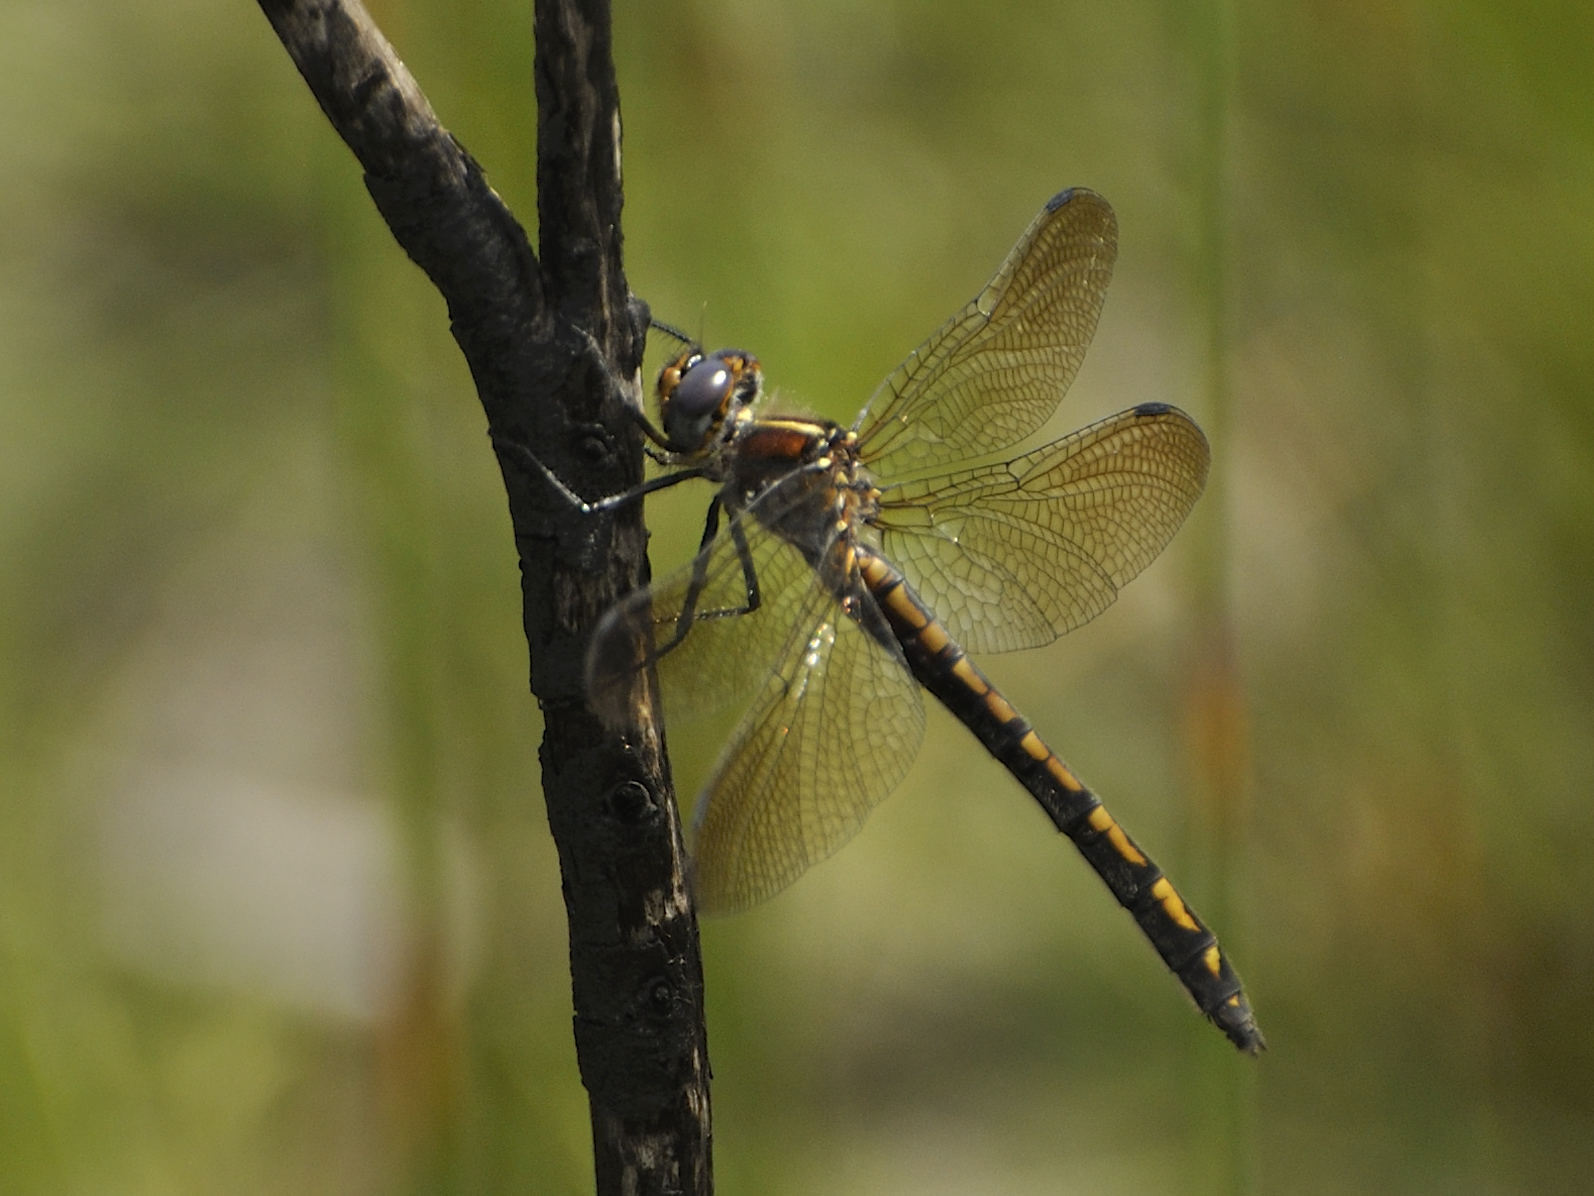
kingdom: Animalia
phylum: Arthropoda
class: Insecta
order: Odonata
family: Synthemistidae
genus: Syncordulia
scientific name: Syncordulia legator
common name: Guilded presba
